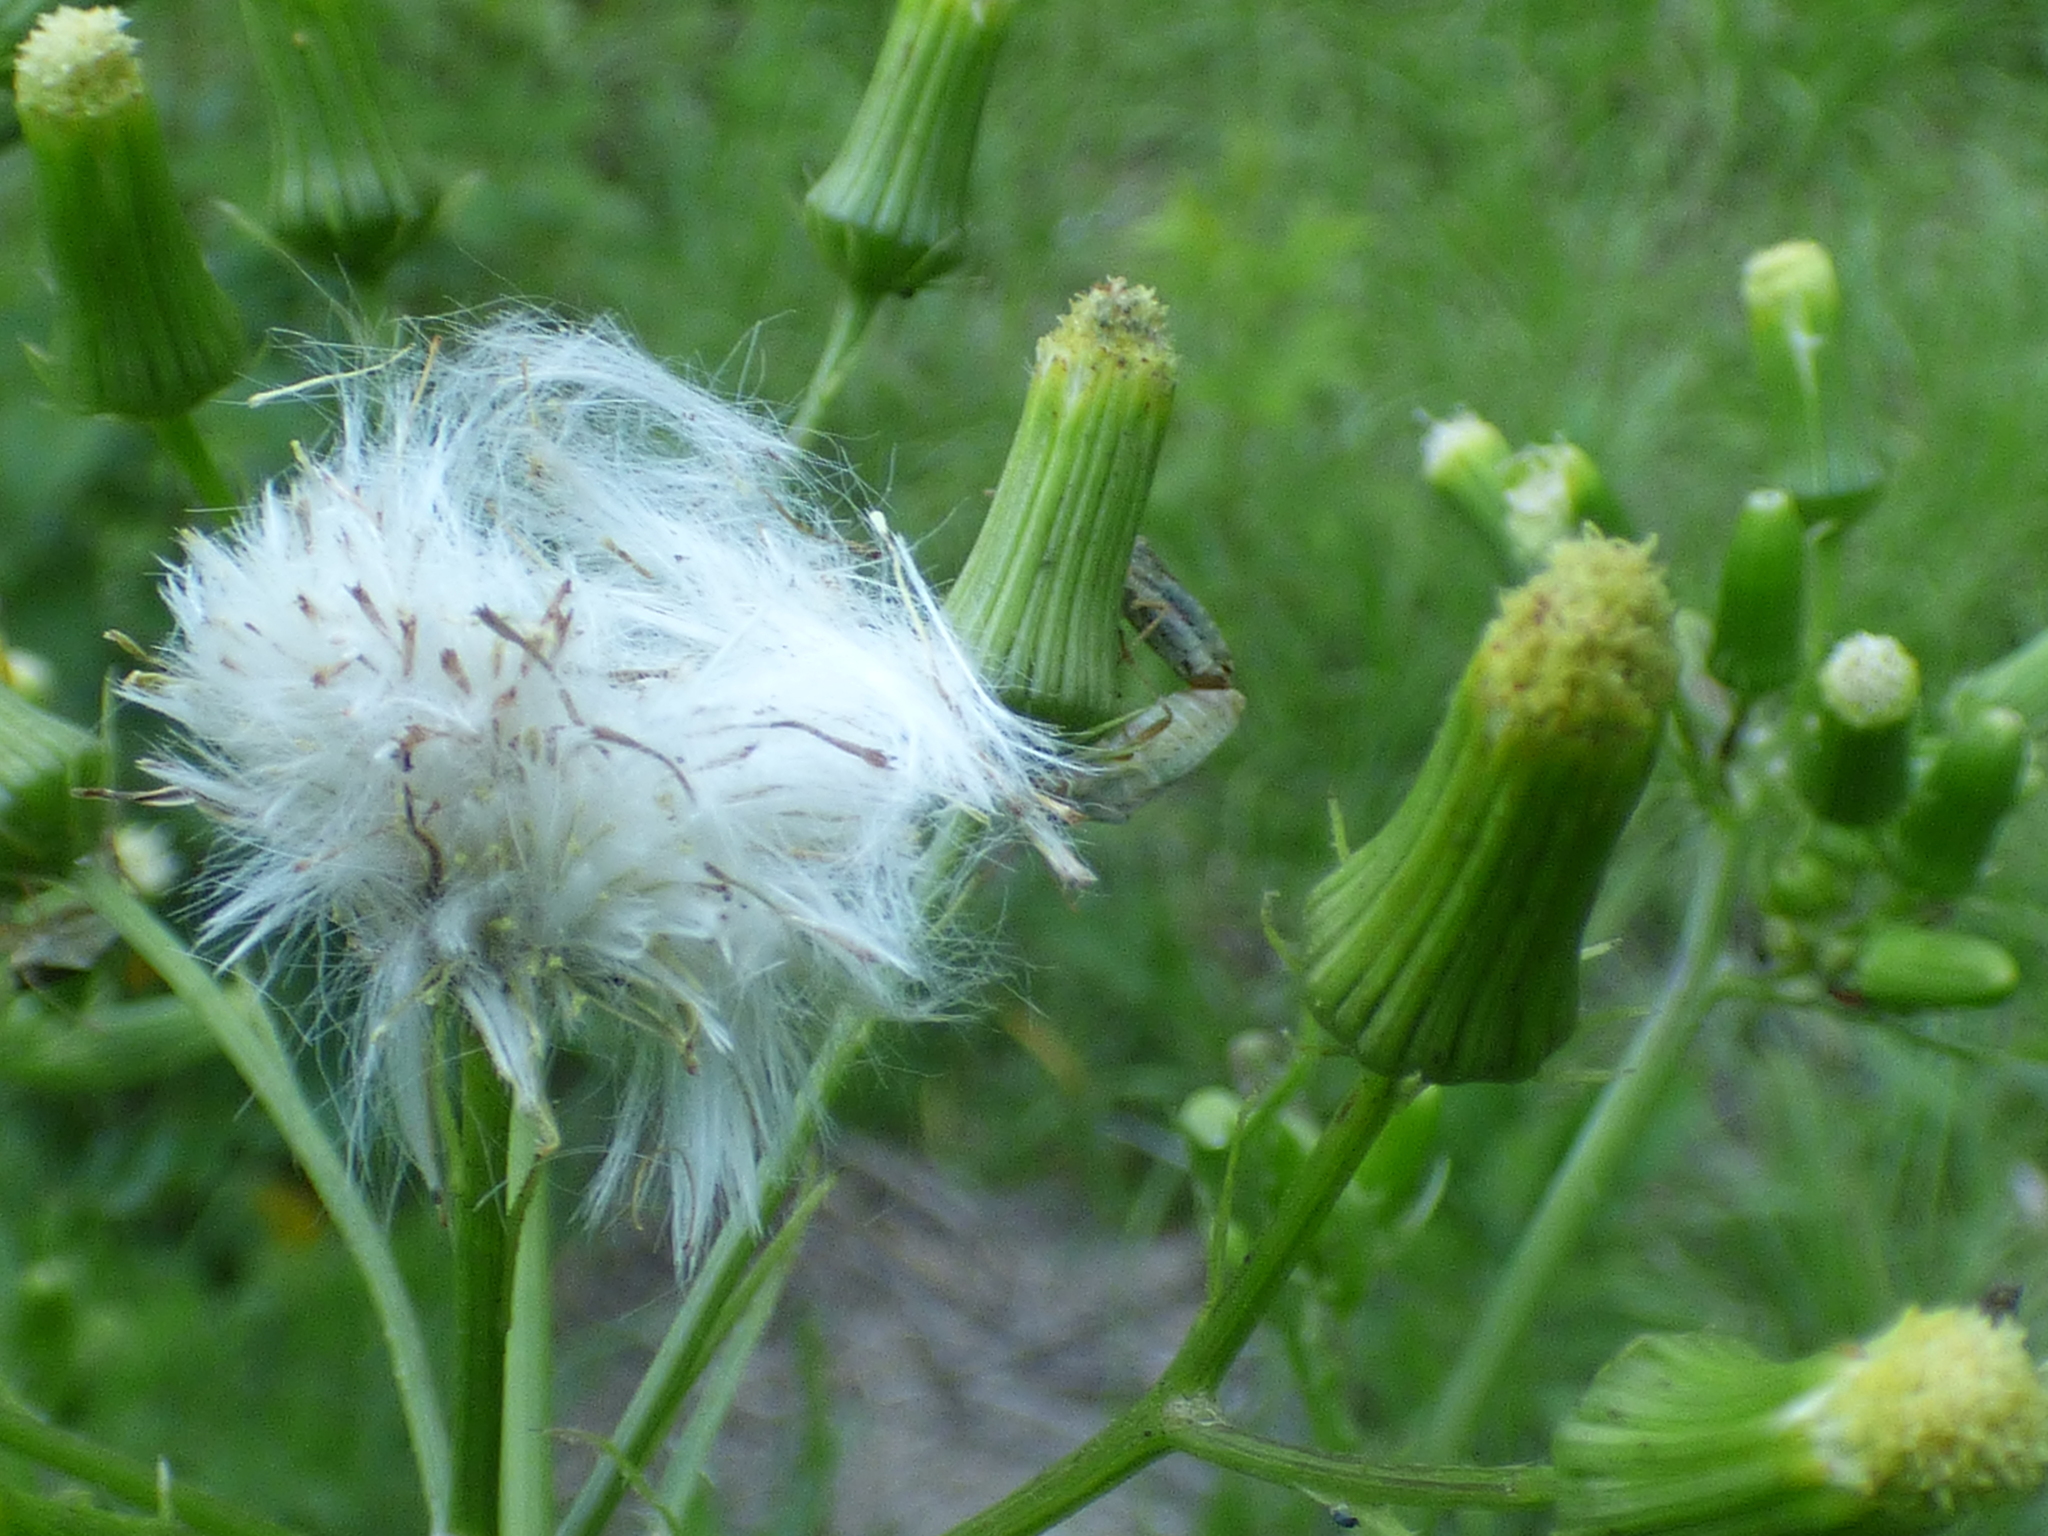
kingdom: Plantae
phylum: Tracheophyta
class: Magnoliopsida
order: Asterales
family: Asteraceae
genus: Erechtites
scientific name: Erechtites hieraciifolius
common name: American burnweed
